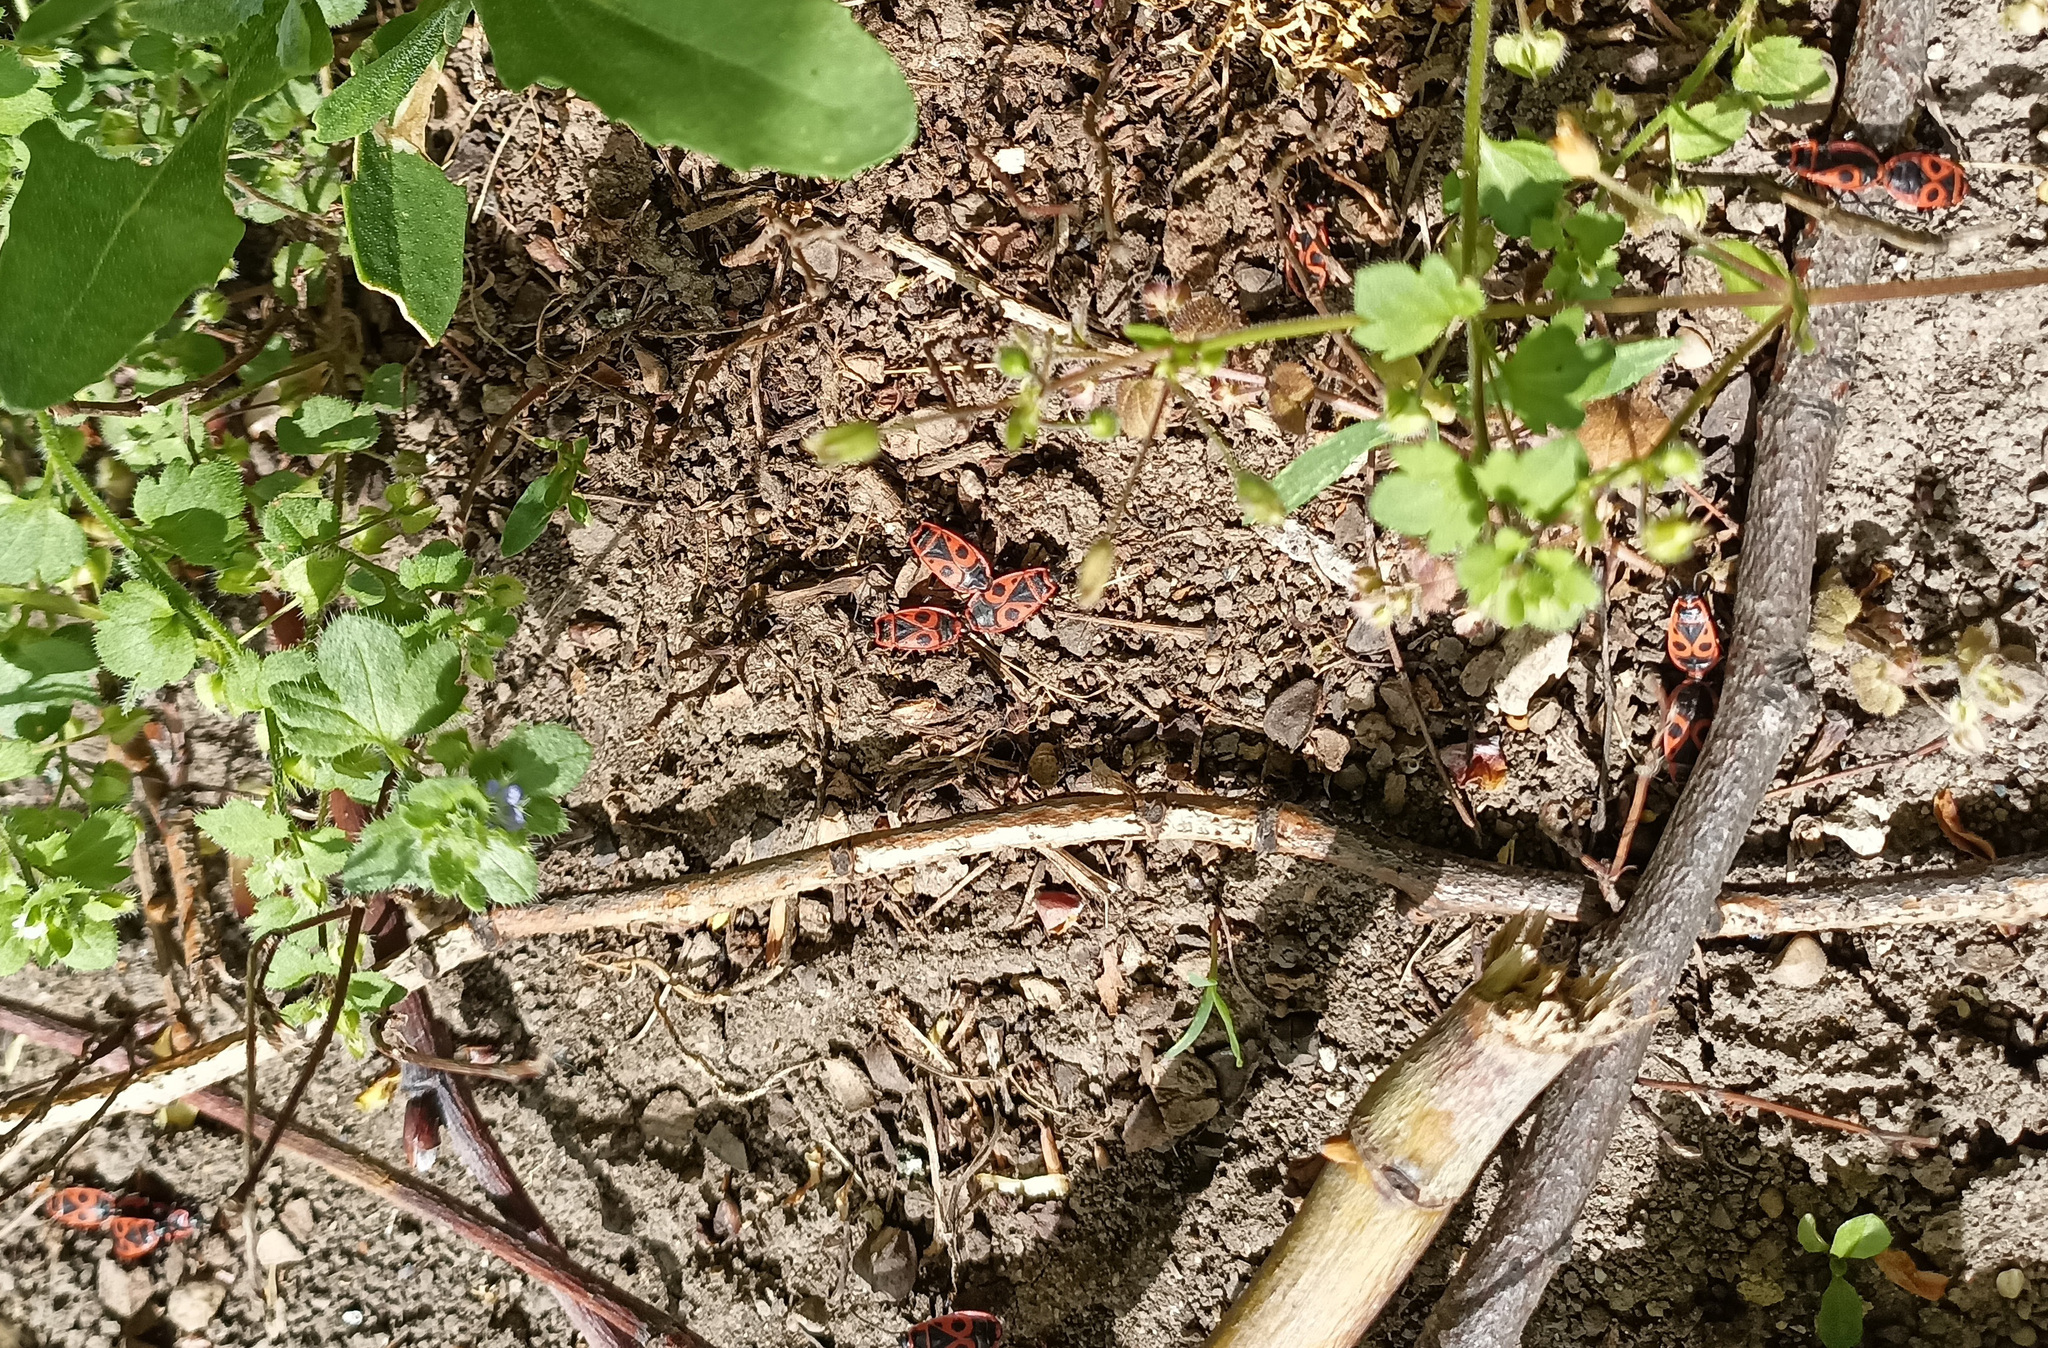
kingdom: Animalia
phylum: Arthropoda
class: Insecta
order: Hemiptera
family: Pyrrhocoridae
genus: Pyrrhocoris
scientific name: Pyrrhocoris apterus
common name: Firebug
